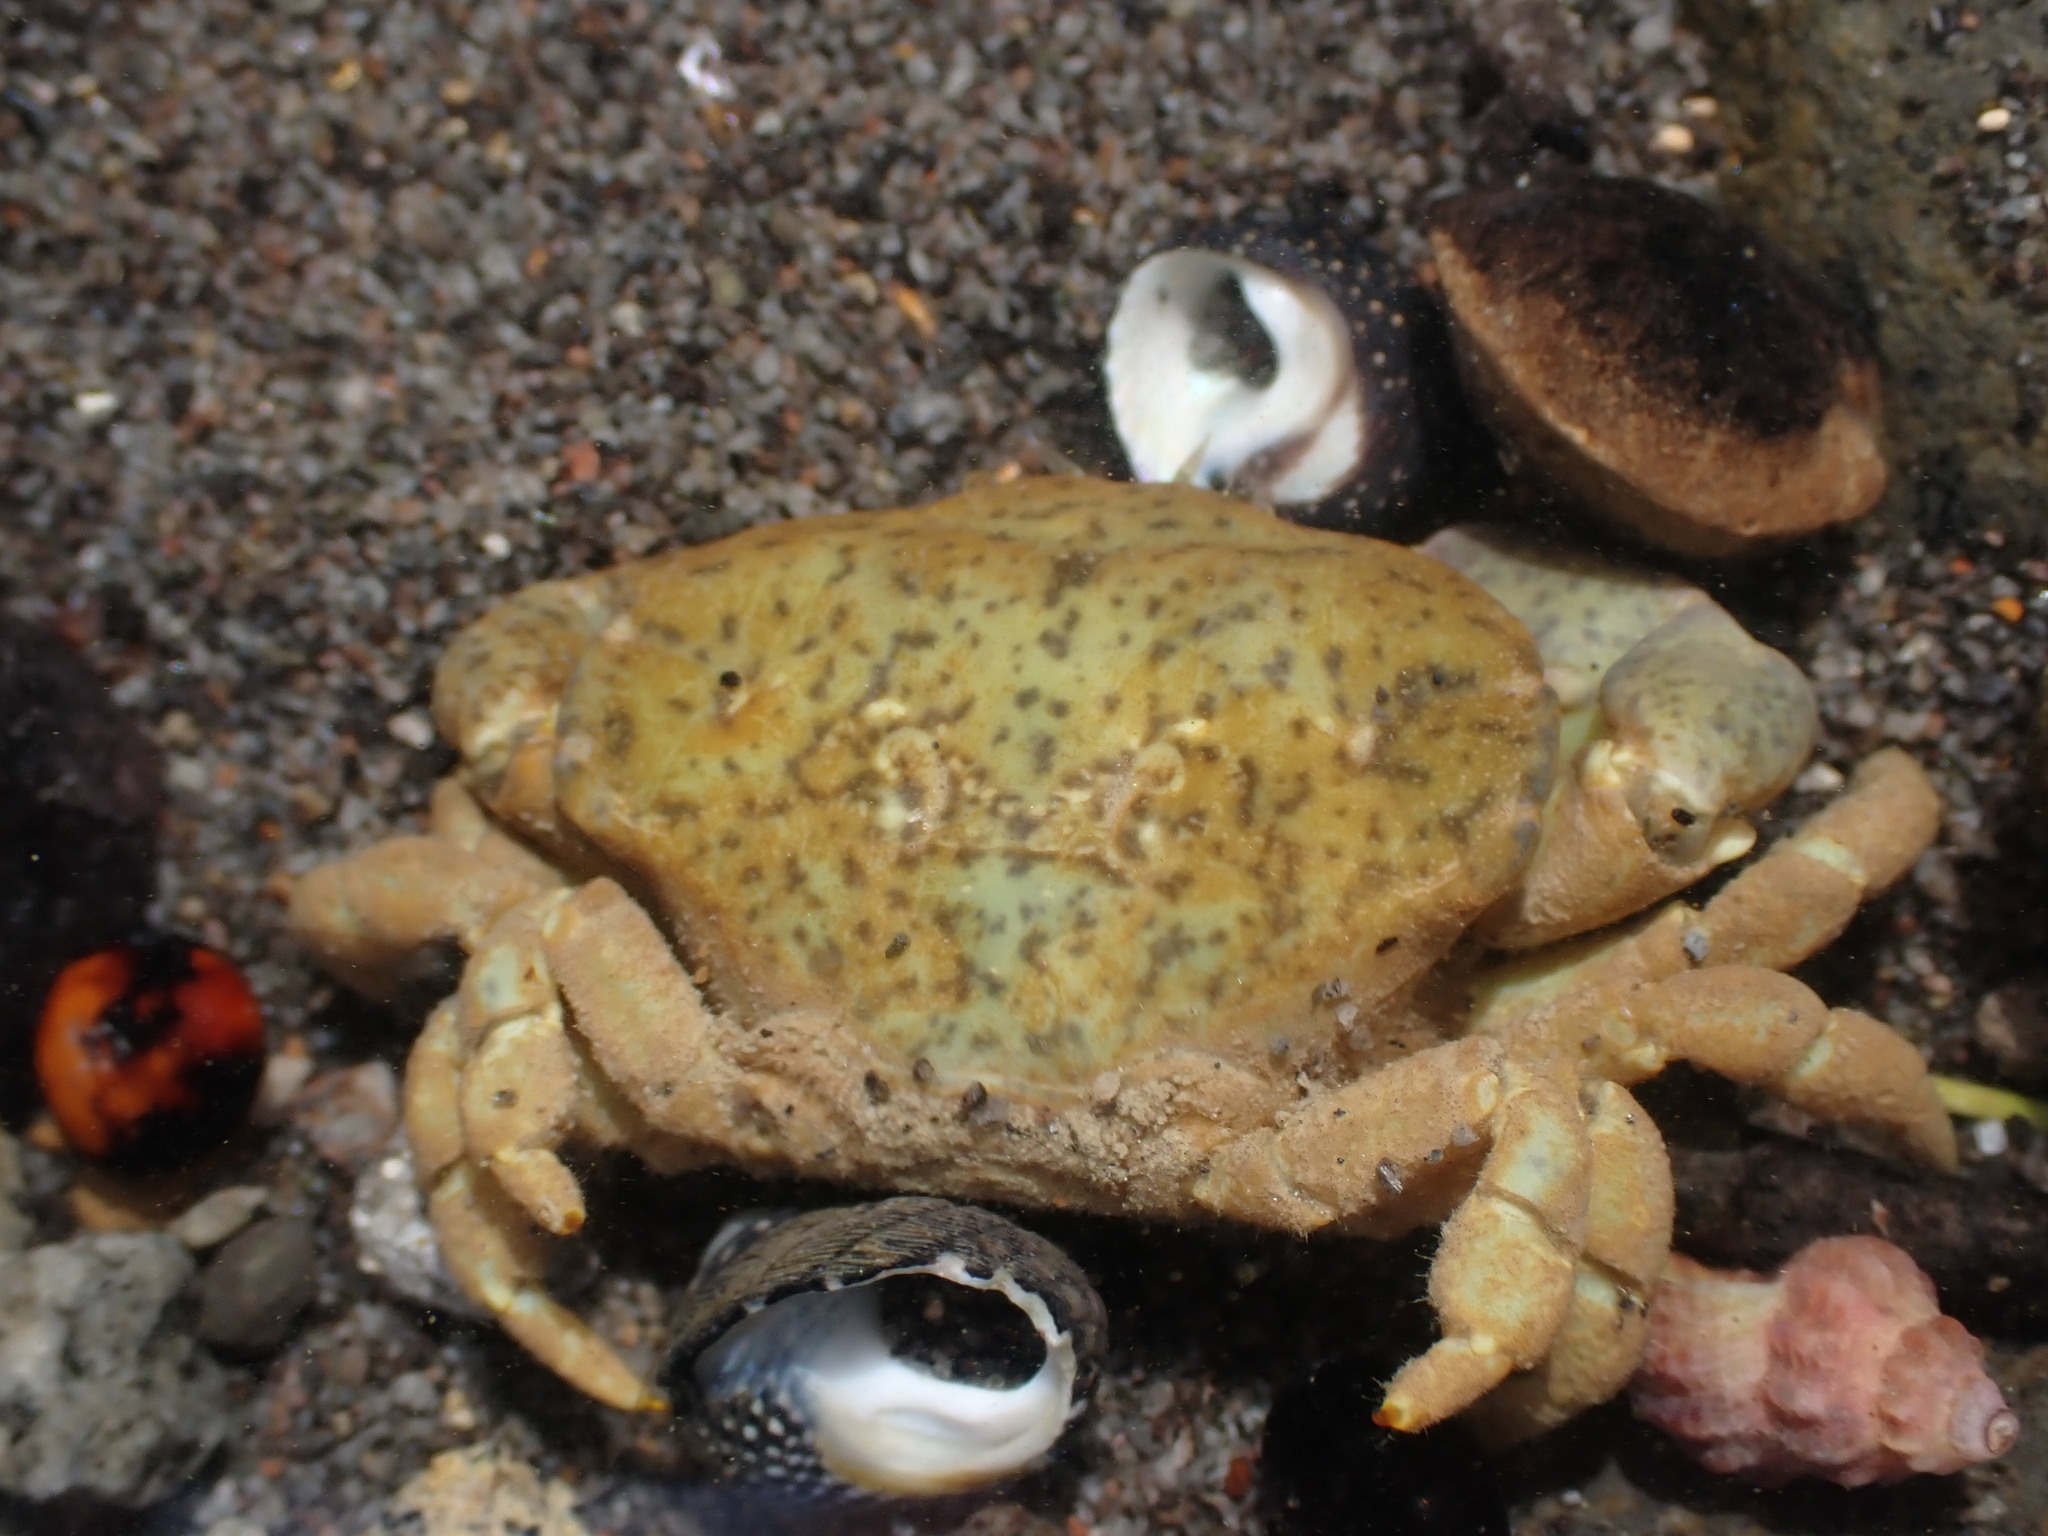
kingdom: Animalia
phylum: Arthropoda
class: Malacostraca
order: Decapoda
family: Heteroziidae
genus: Heterozius
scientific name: Heterozius rotundifrons
